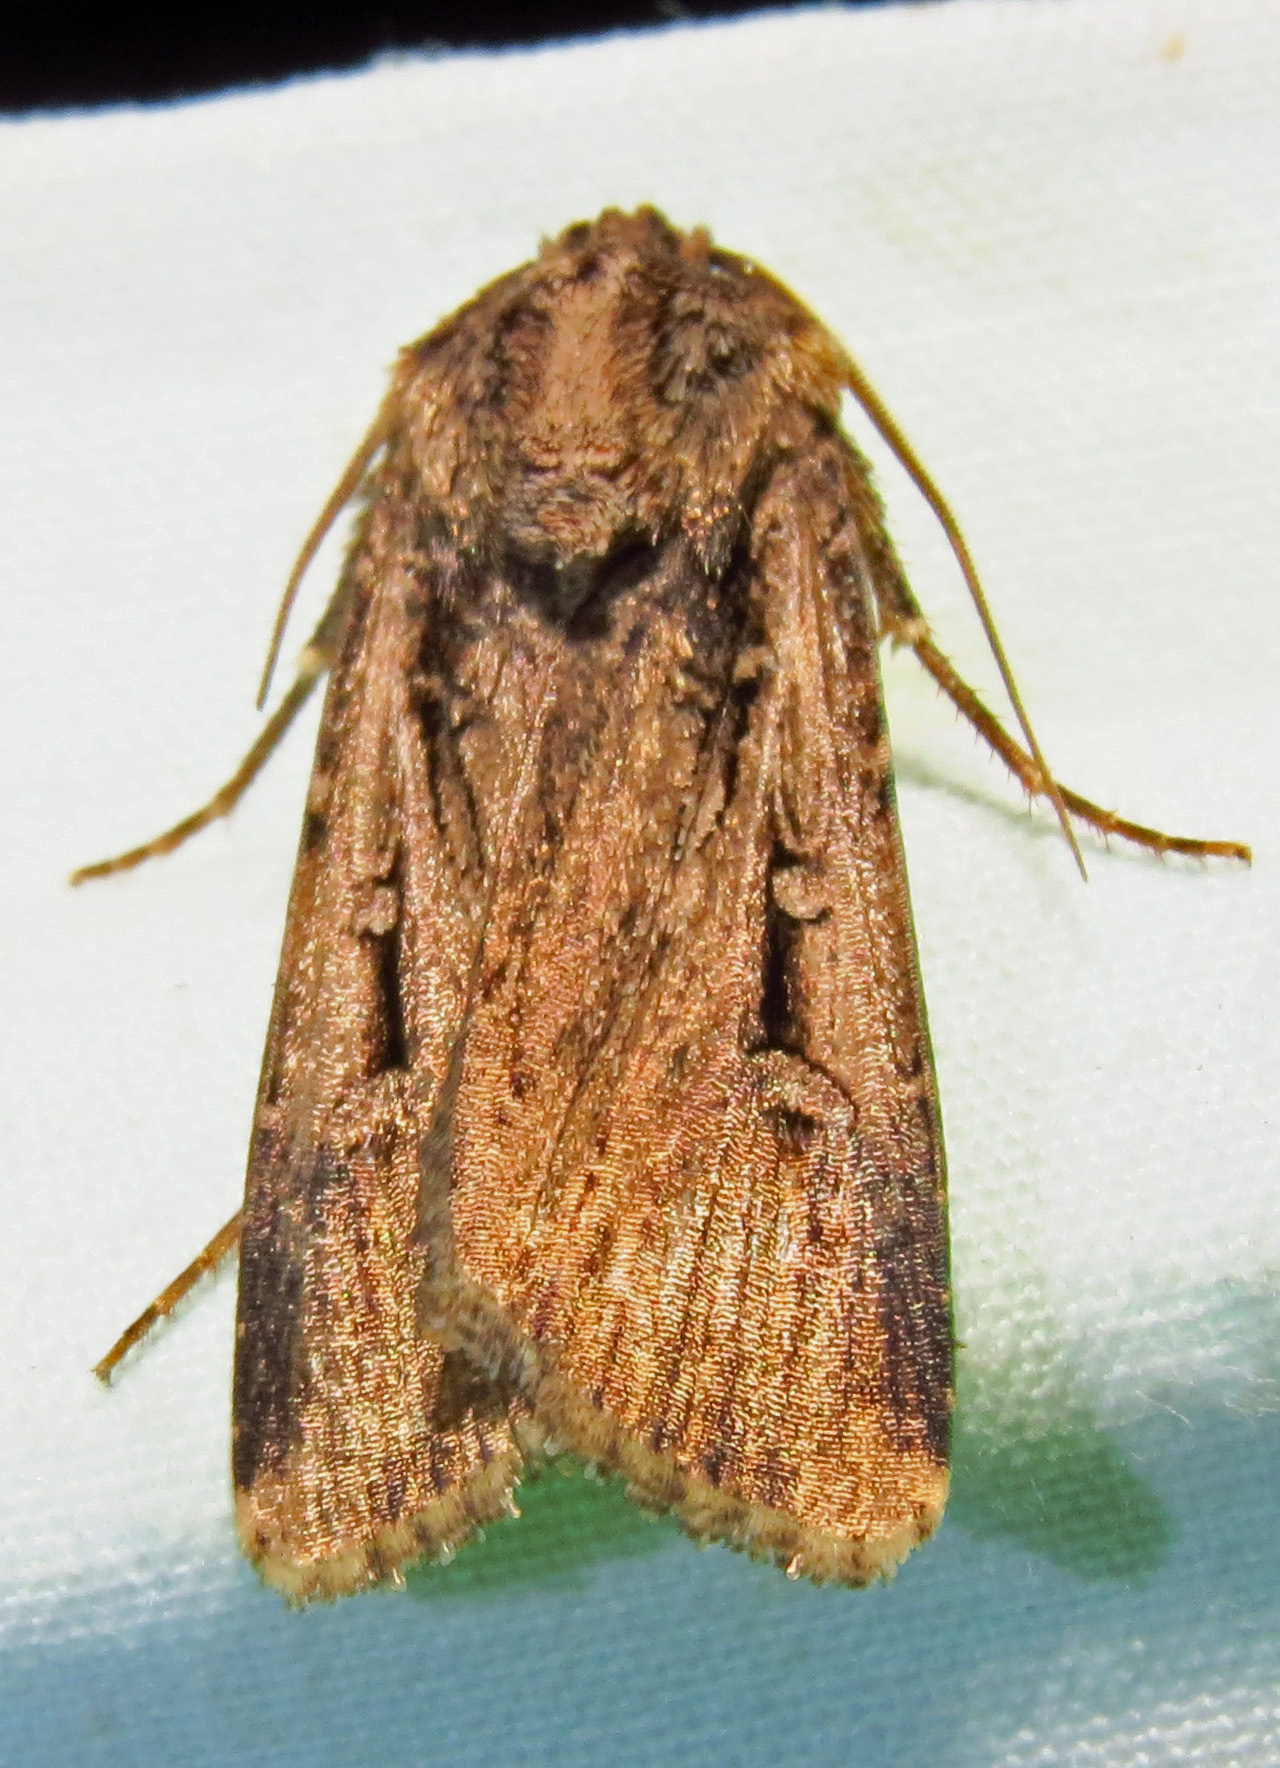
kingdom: Animalia
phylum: Arthropoda
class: Insecta
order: Lepidoptera
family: Noctuidae
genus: Feltia
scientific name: Feltia subterranea
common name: Granulate cutworm
